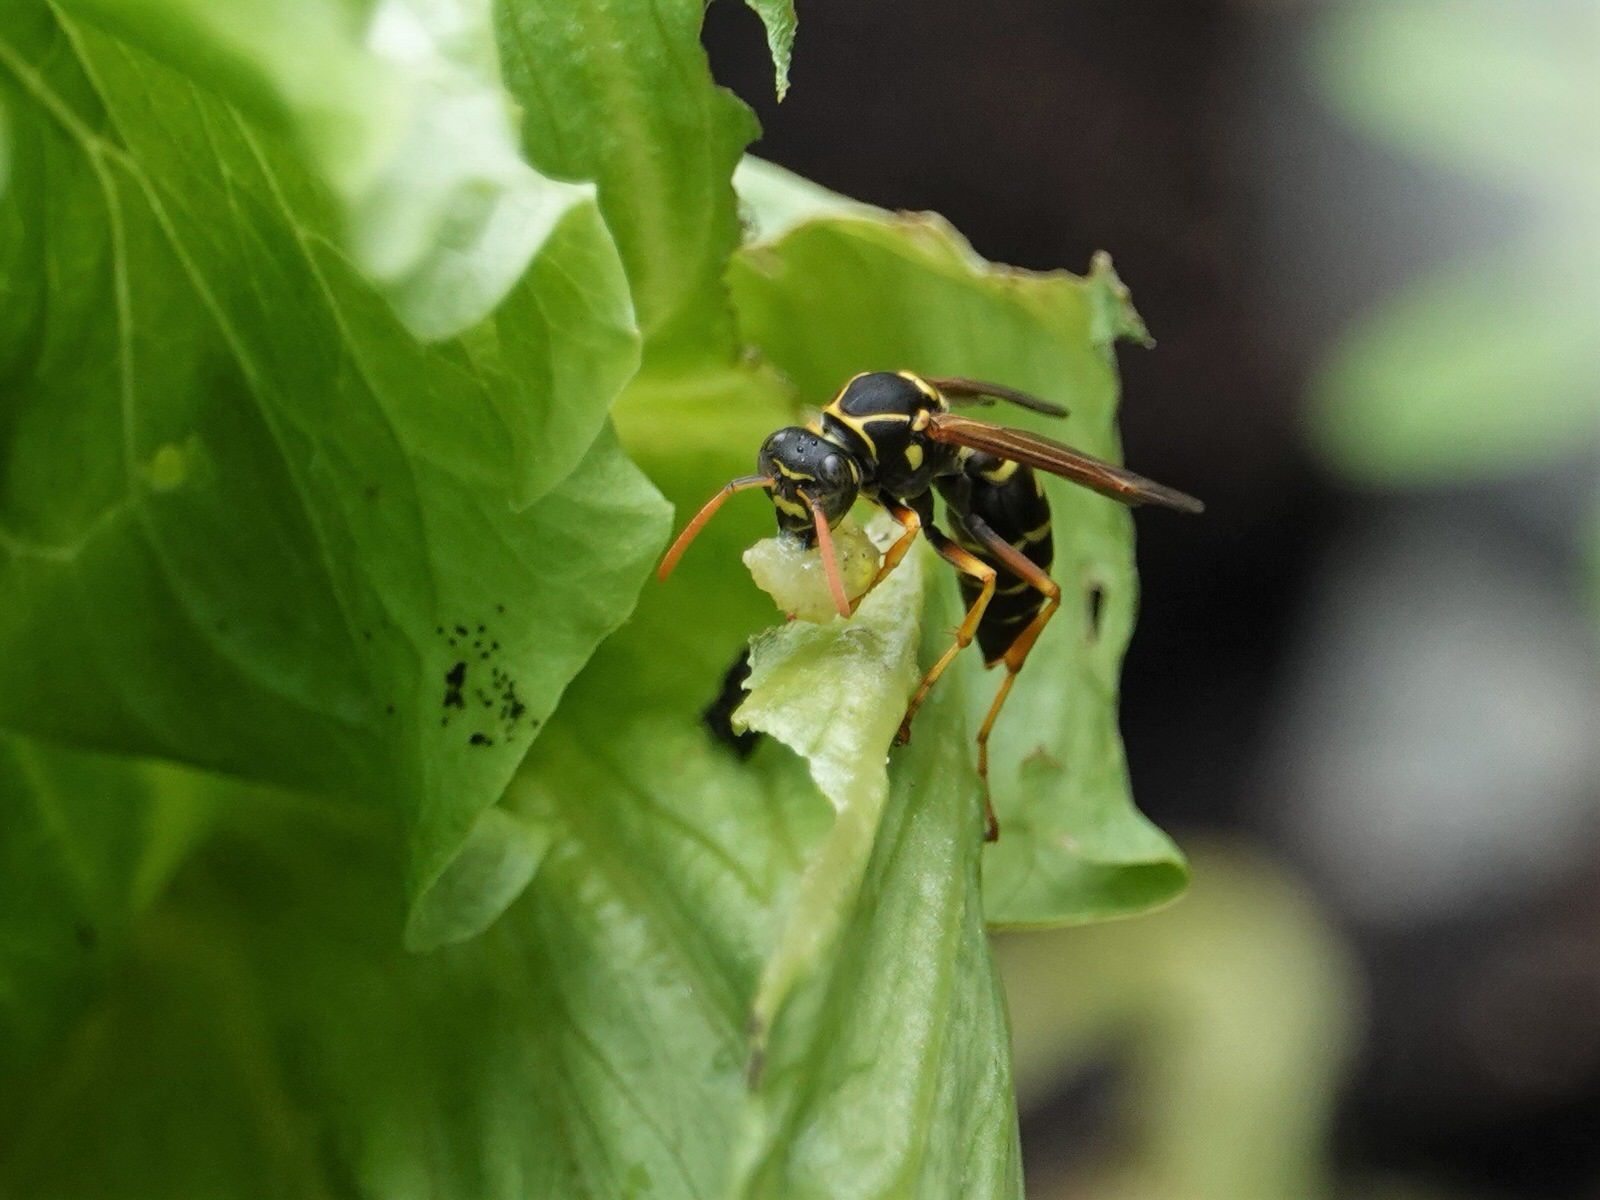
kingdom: Animalia
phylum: Arthropoda
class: Insecta
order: Hymenoptera
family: Eumenidae
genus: Polistes
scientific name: Polistes chinensis
